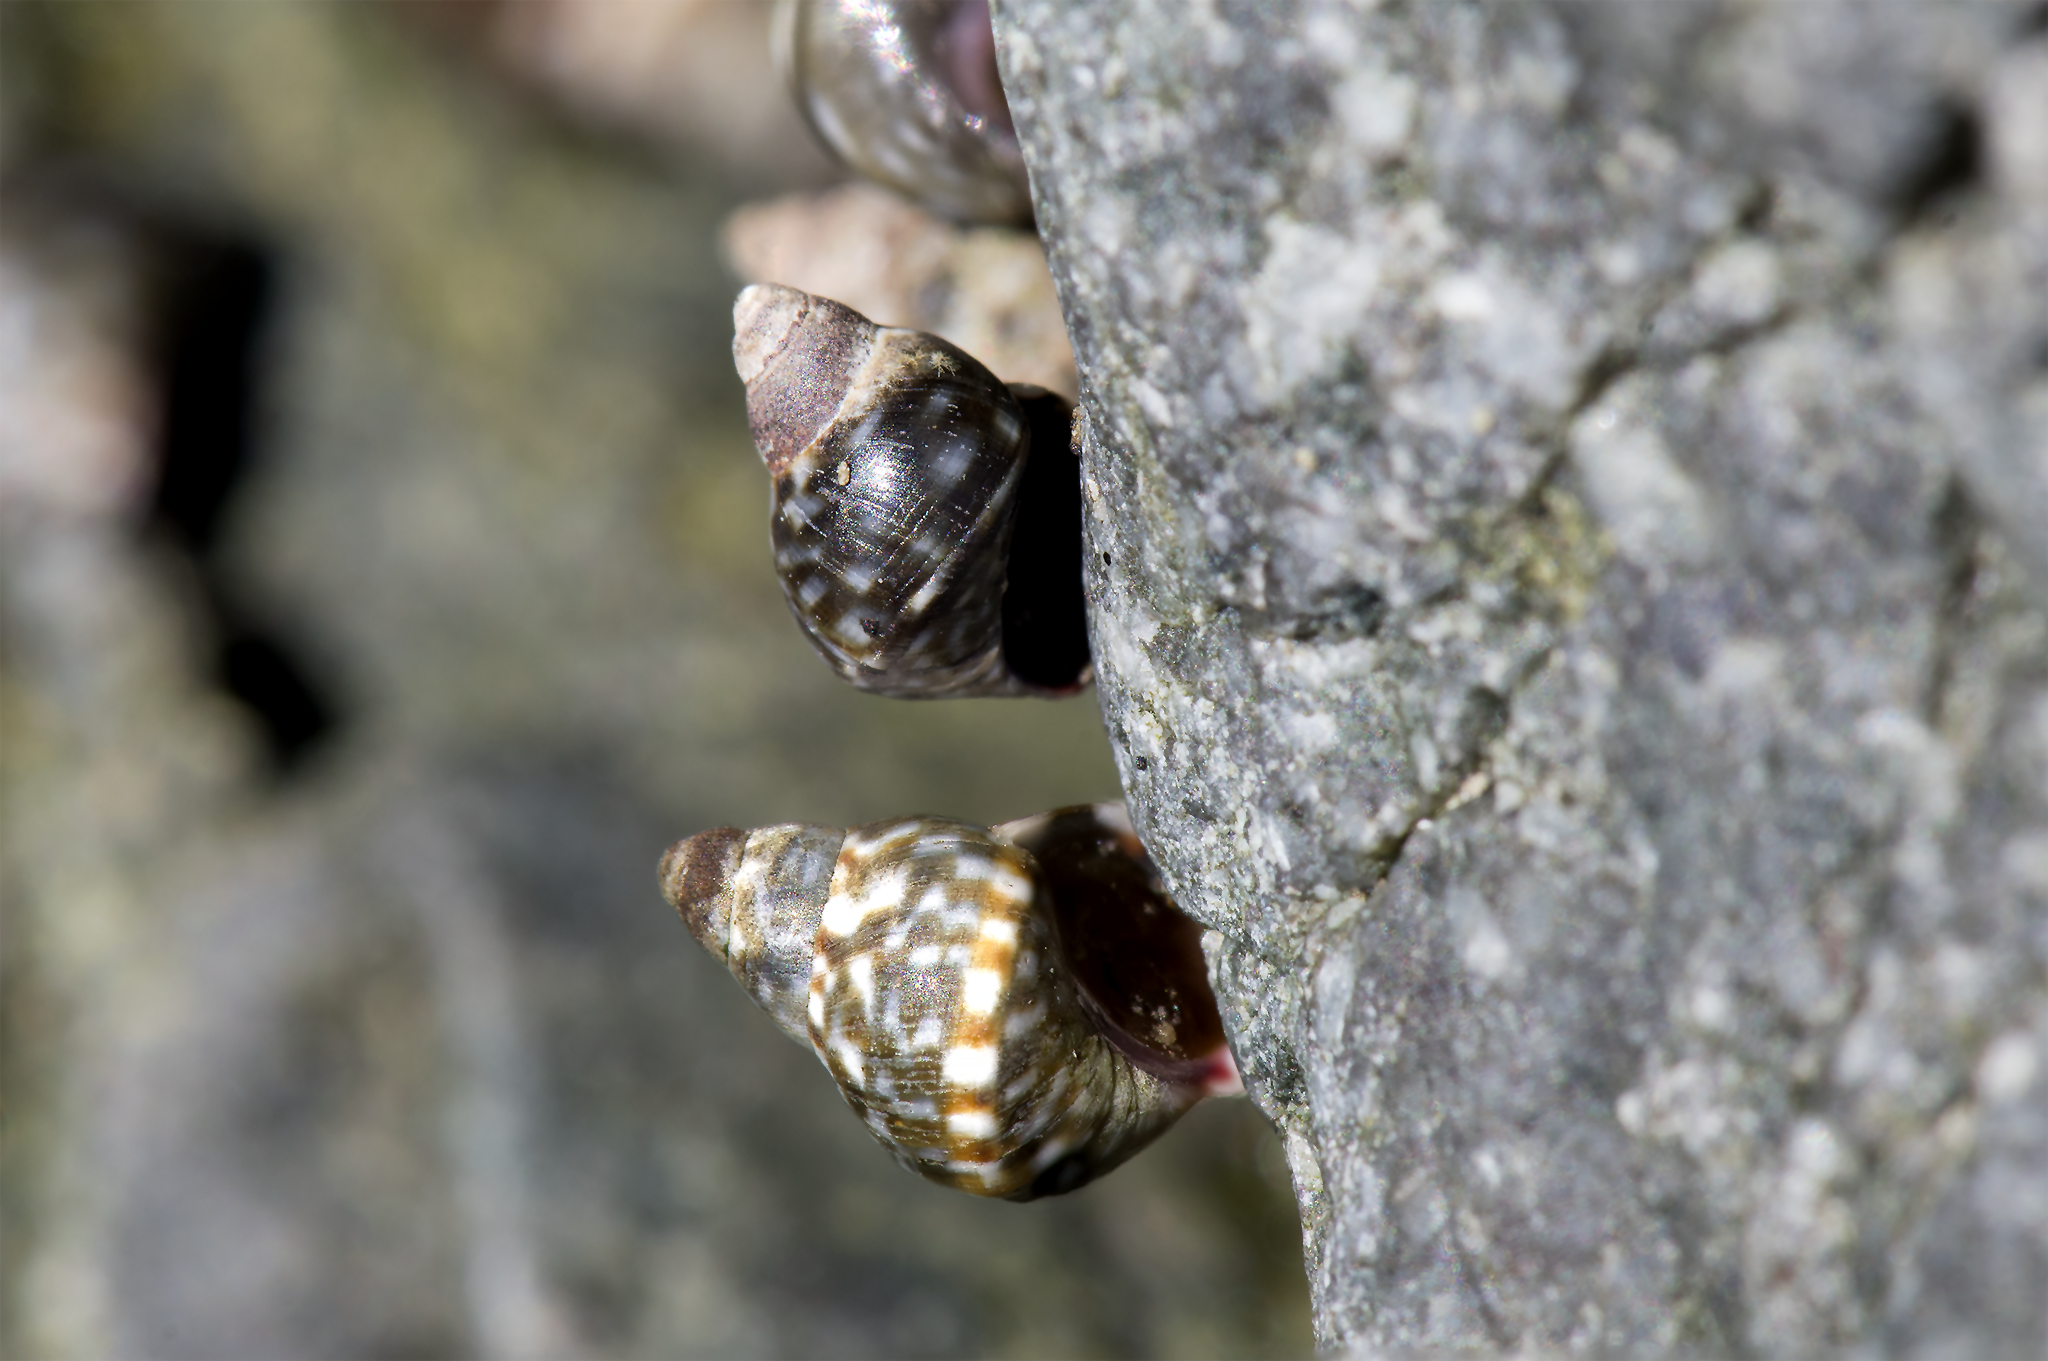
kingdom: Animalia
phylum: Mollusca
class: Gastropoda
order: Littorinimorpha
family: Littorinidae
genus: Littorina
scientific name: Littorina scutulata
